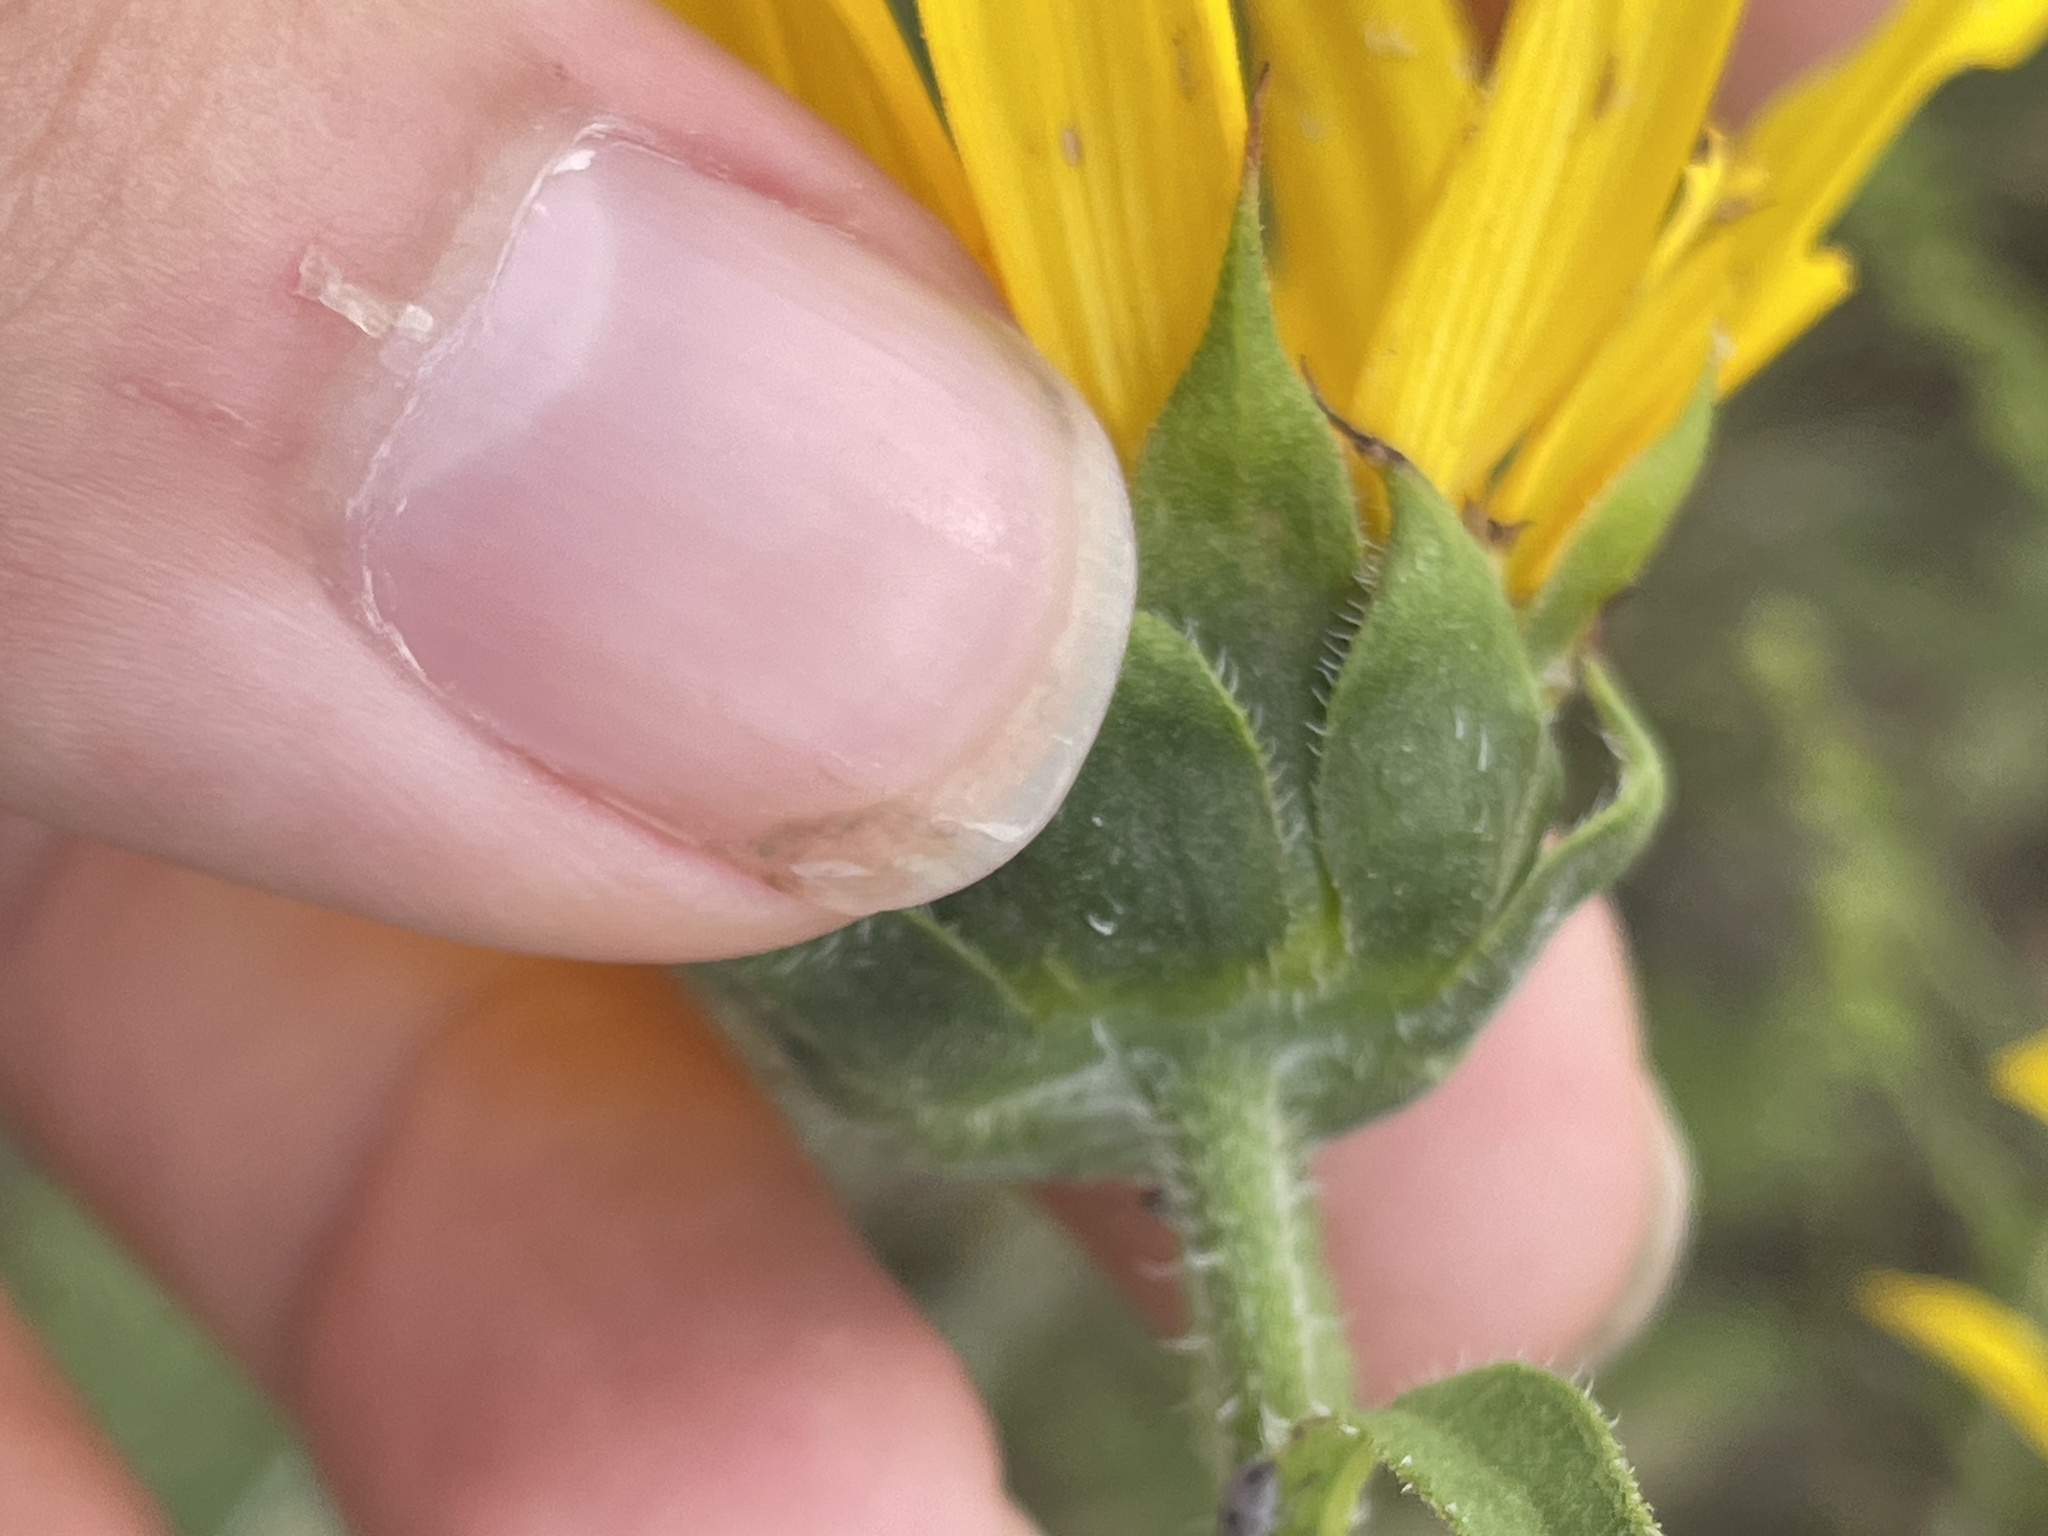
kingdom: Plantae
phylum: Tracheophyta
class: Magnoliopsida
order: Asterales
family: Asteraceae
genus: Helianthus
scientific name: Helianthus annuus
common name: Sunflower
